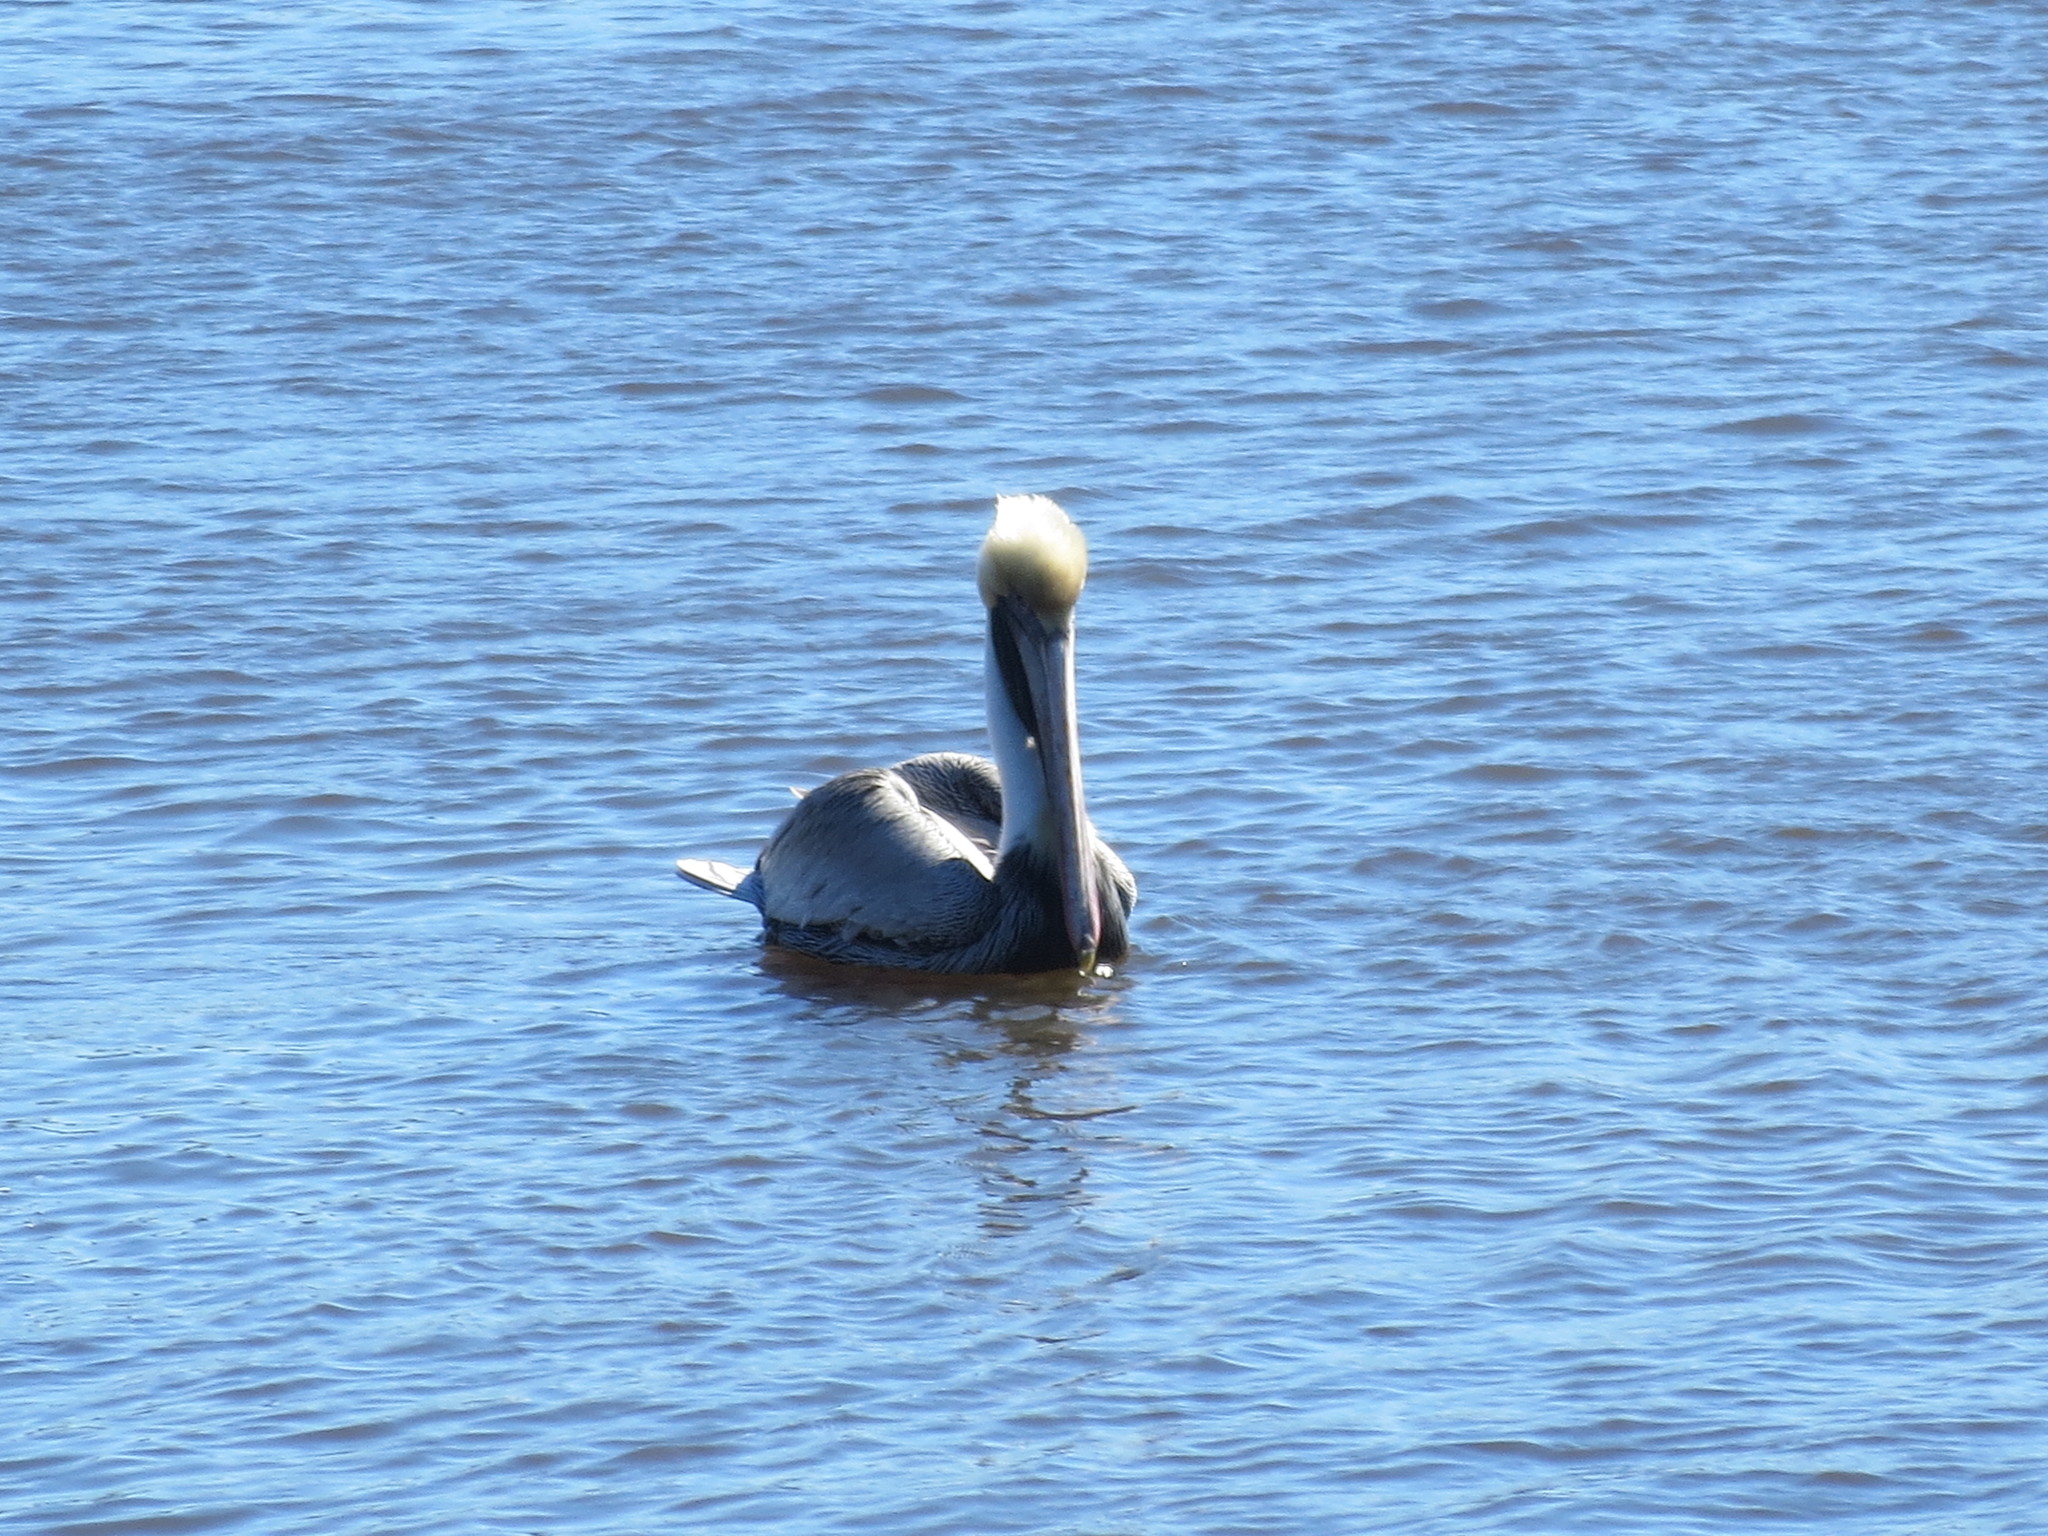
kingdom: Animalia
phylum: Chordata
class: Aves
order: Pelecaniformes
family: Pelecanidae
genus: Pelecanus
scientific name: Pelecanus occidentalis
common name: Brown pelican
